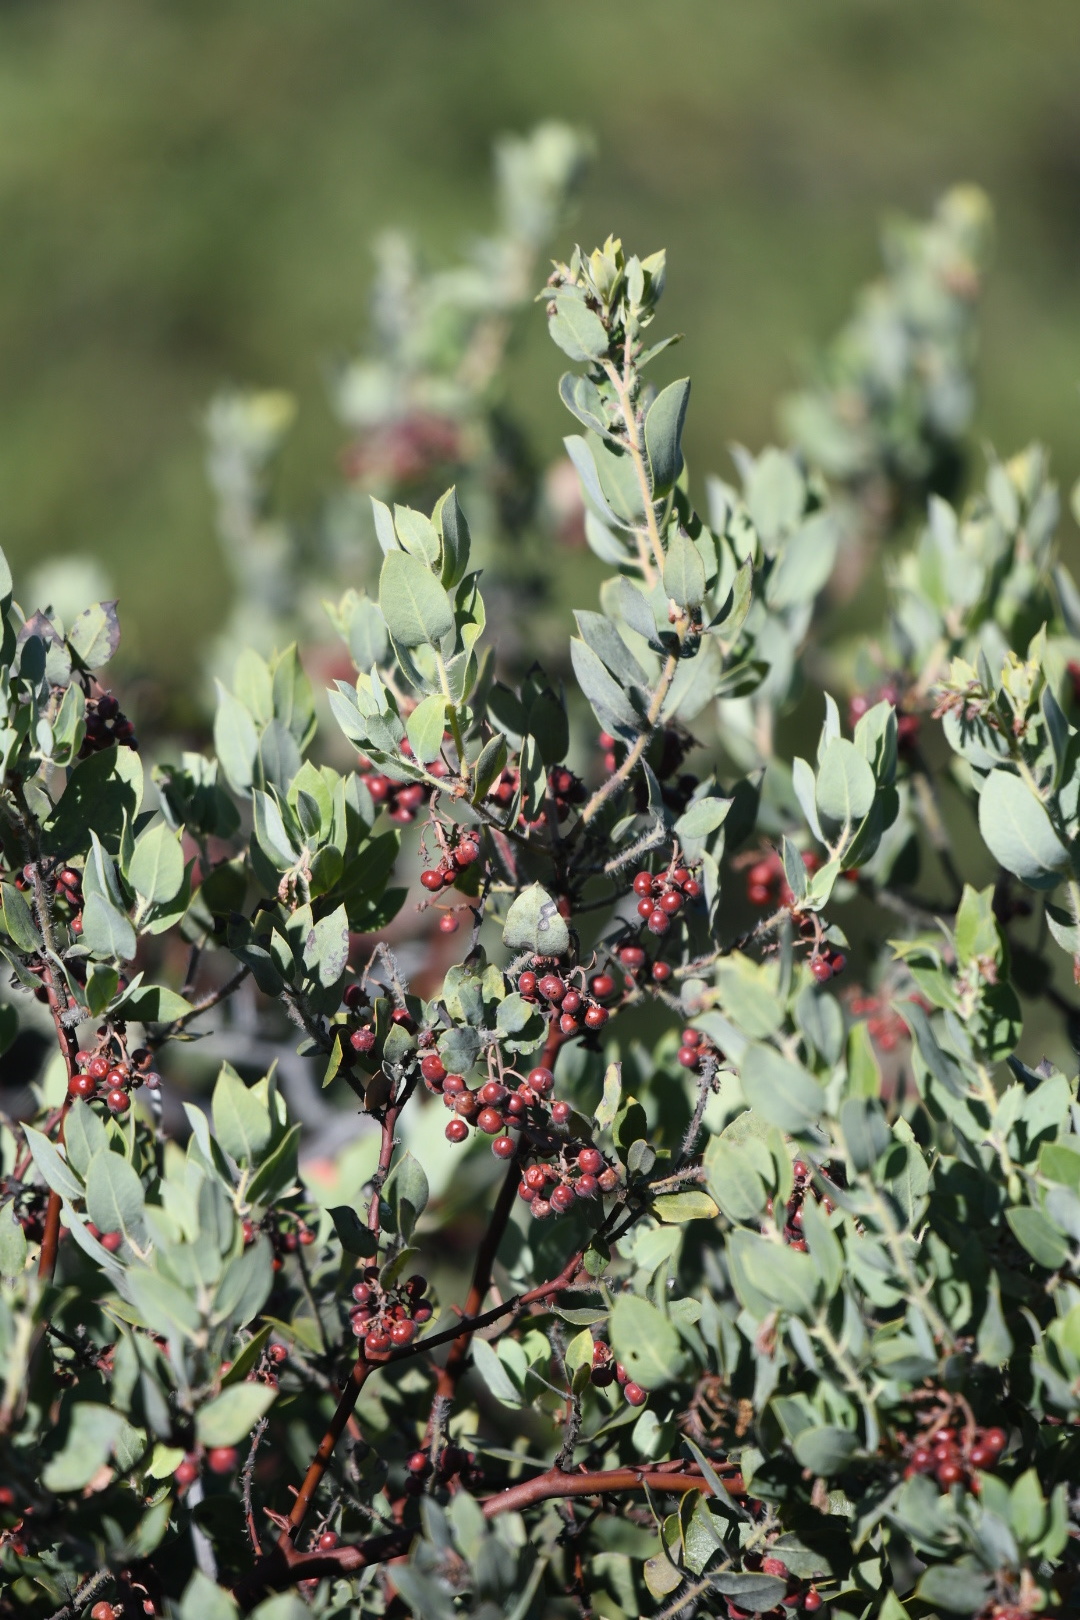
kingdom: Plantae
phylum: Tracheophyta
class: Magnoliopsida
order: Ericales
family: Ericaceae
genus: Arctostaphylos
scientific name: Arctostaphylos crustacea
